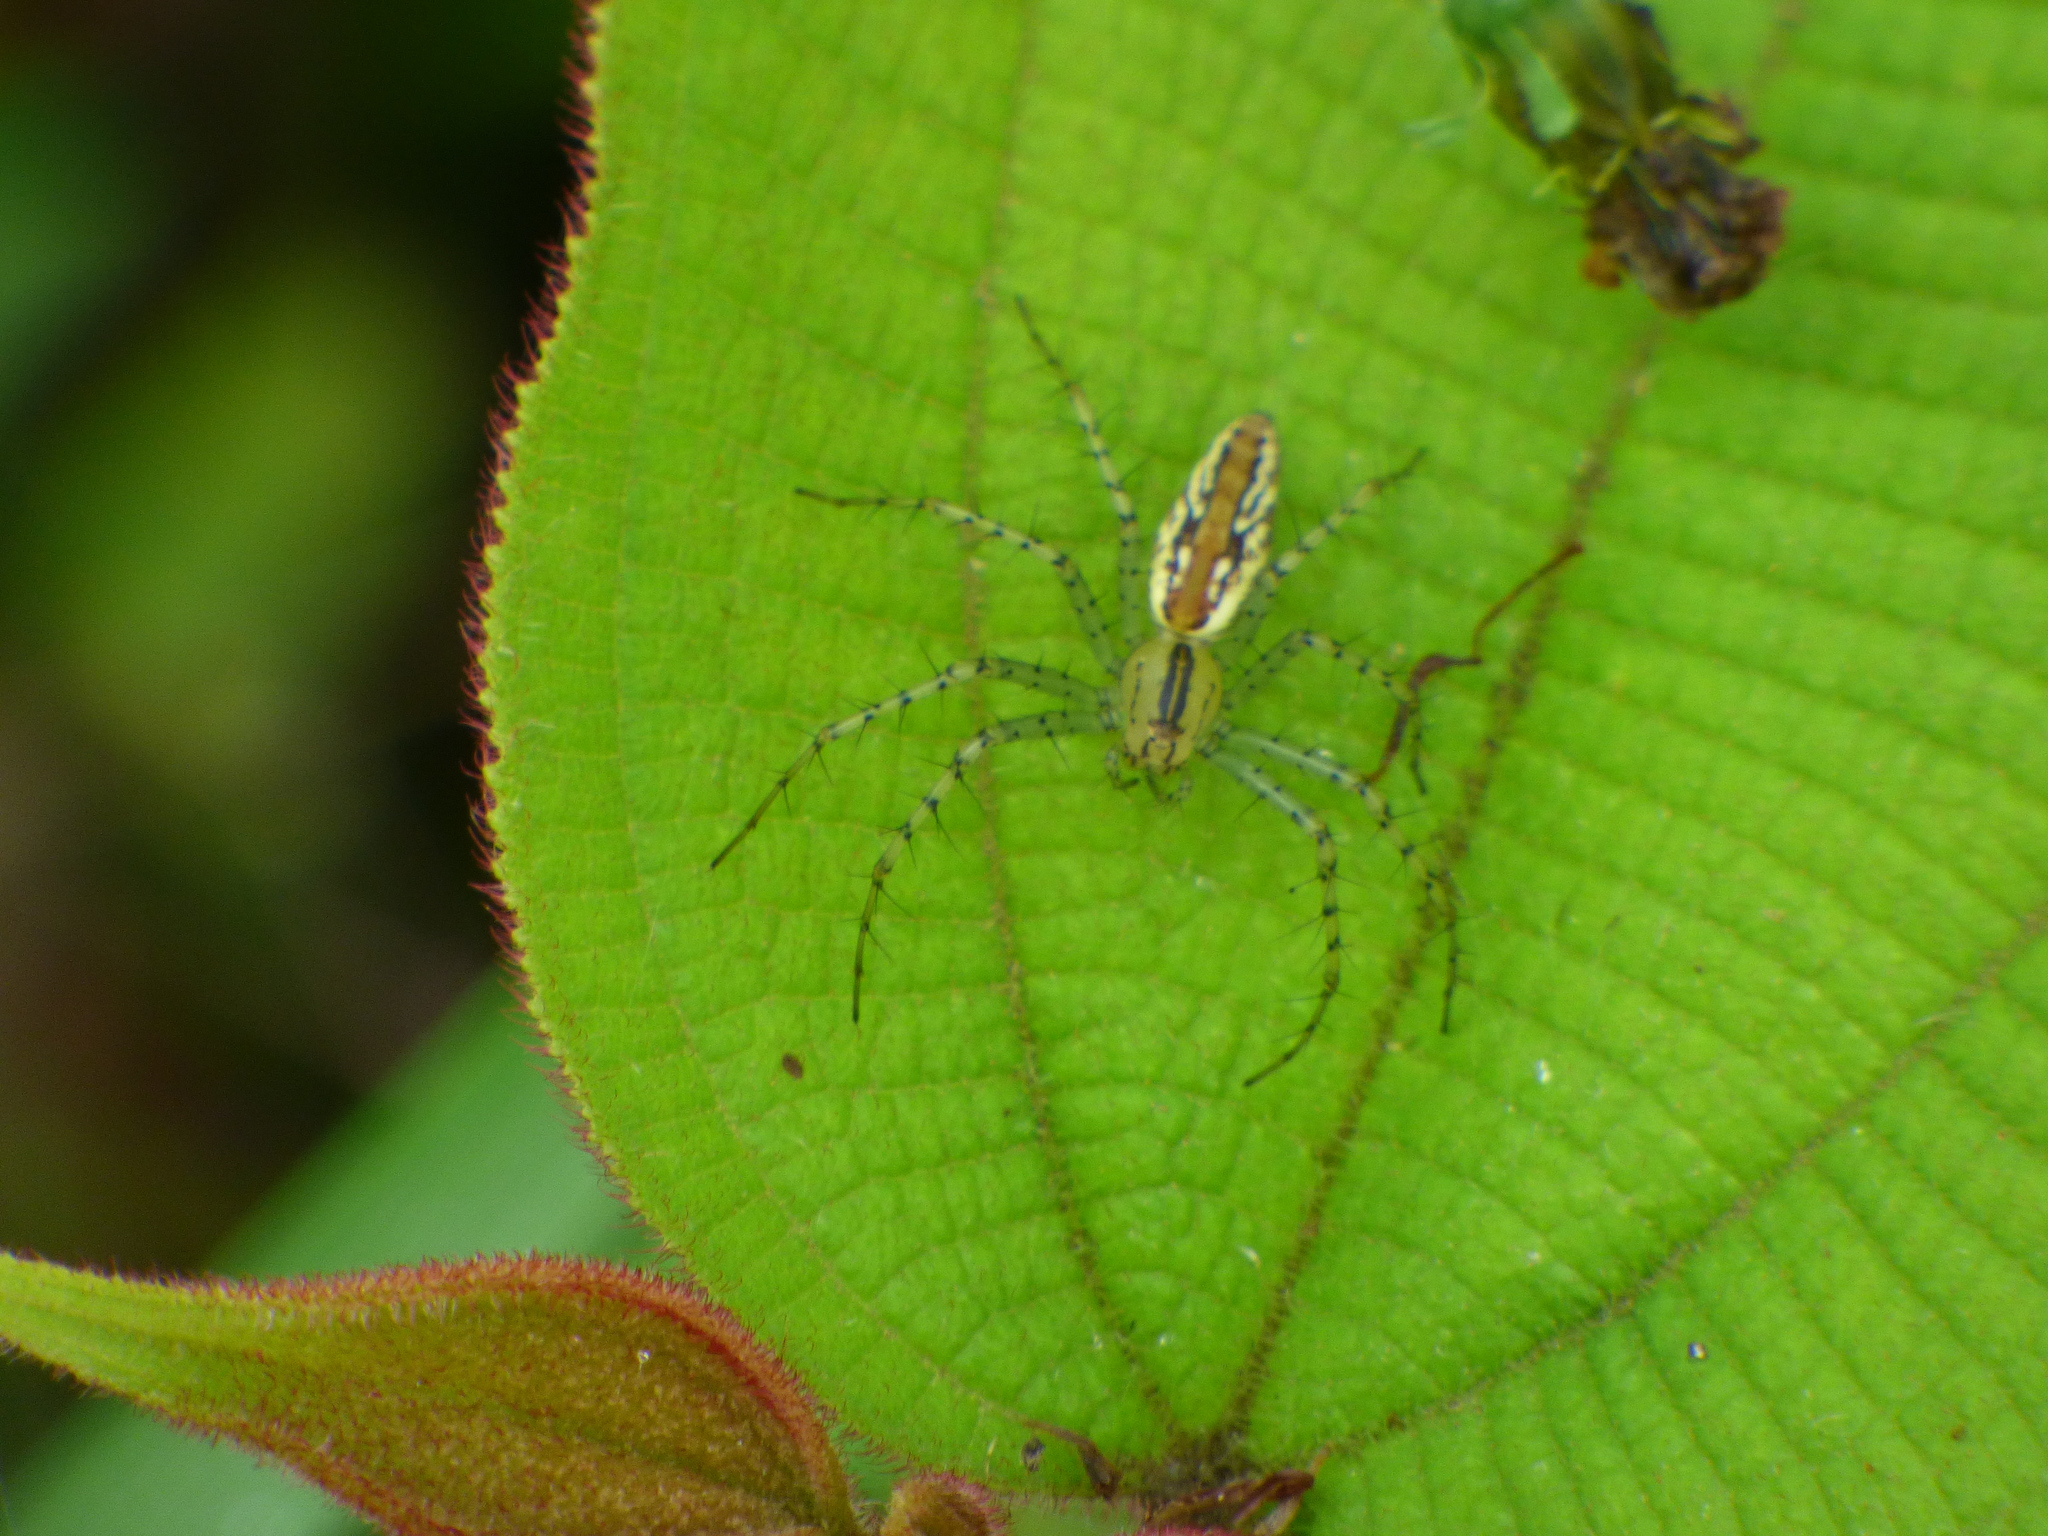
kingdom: Animalia
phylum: Arthropoda
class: Arachnida
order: Araneae
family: Oxyopidae
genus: Peucetia
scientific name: Peucetia rubrolineata
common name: Lynx spiders
